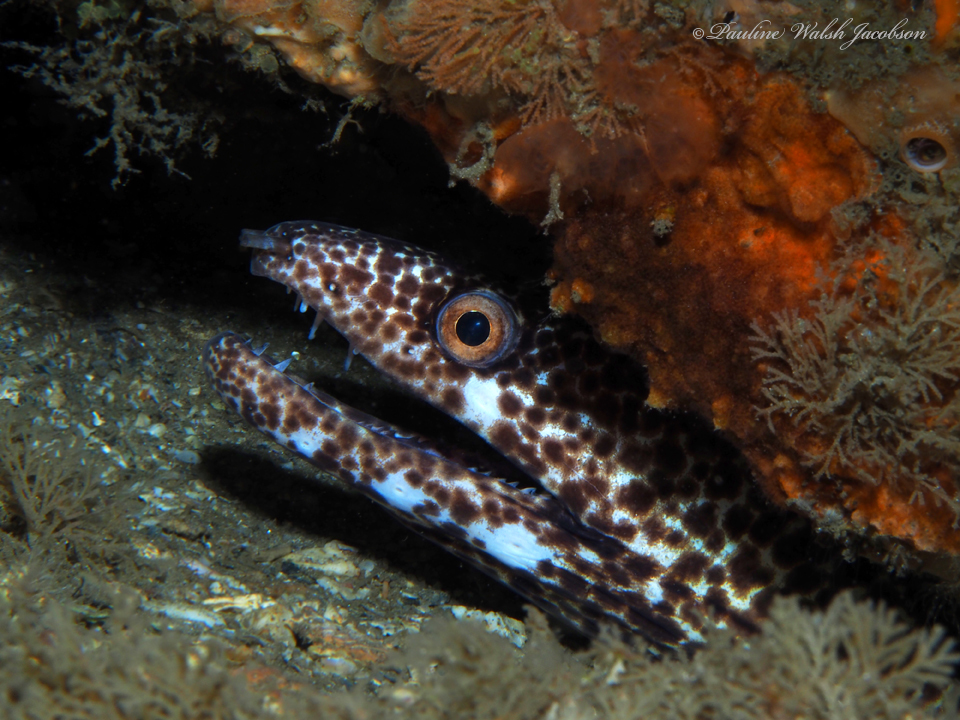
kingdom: Animalia
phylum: Chordata
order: Anguilliformes
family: Muraenidae
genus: Gymnothorax
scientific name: Gymnothorax moringa
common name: Spotted moray
